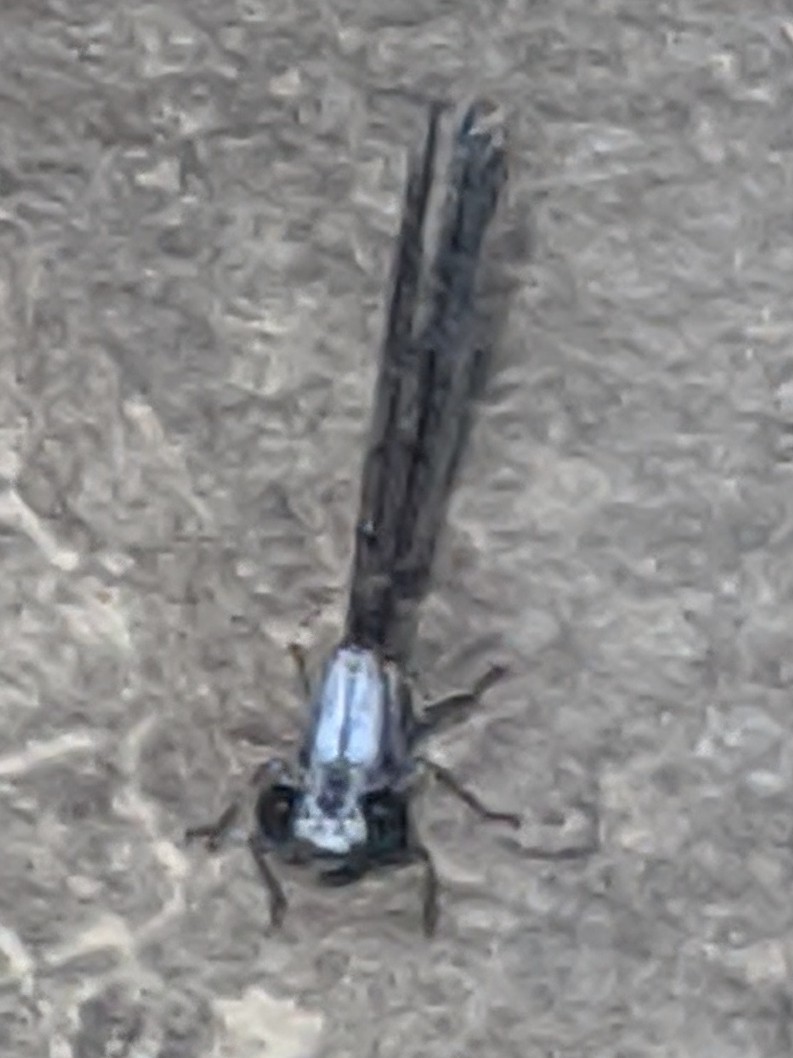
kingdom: Animalia
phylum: Arthropoda
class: Insecta
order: Odonata
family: Coenagrionidae
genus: Argia
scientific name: Argia moesta
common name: Powdered dancer
